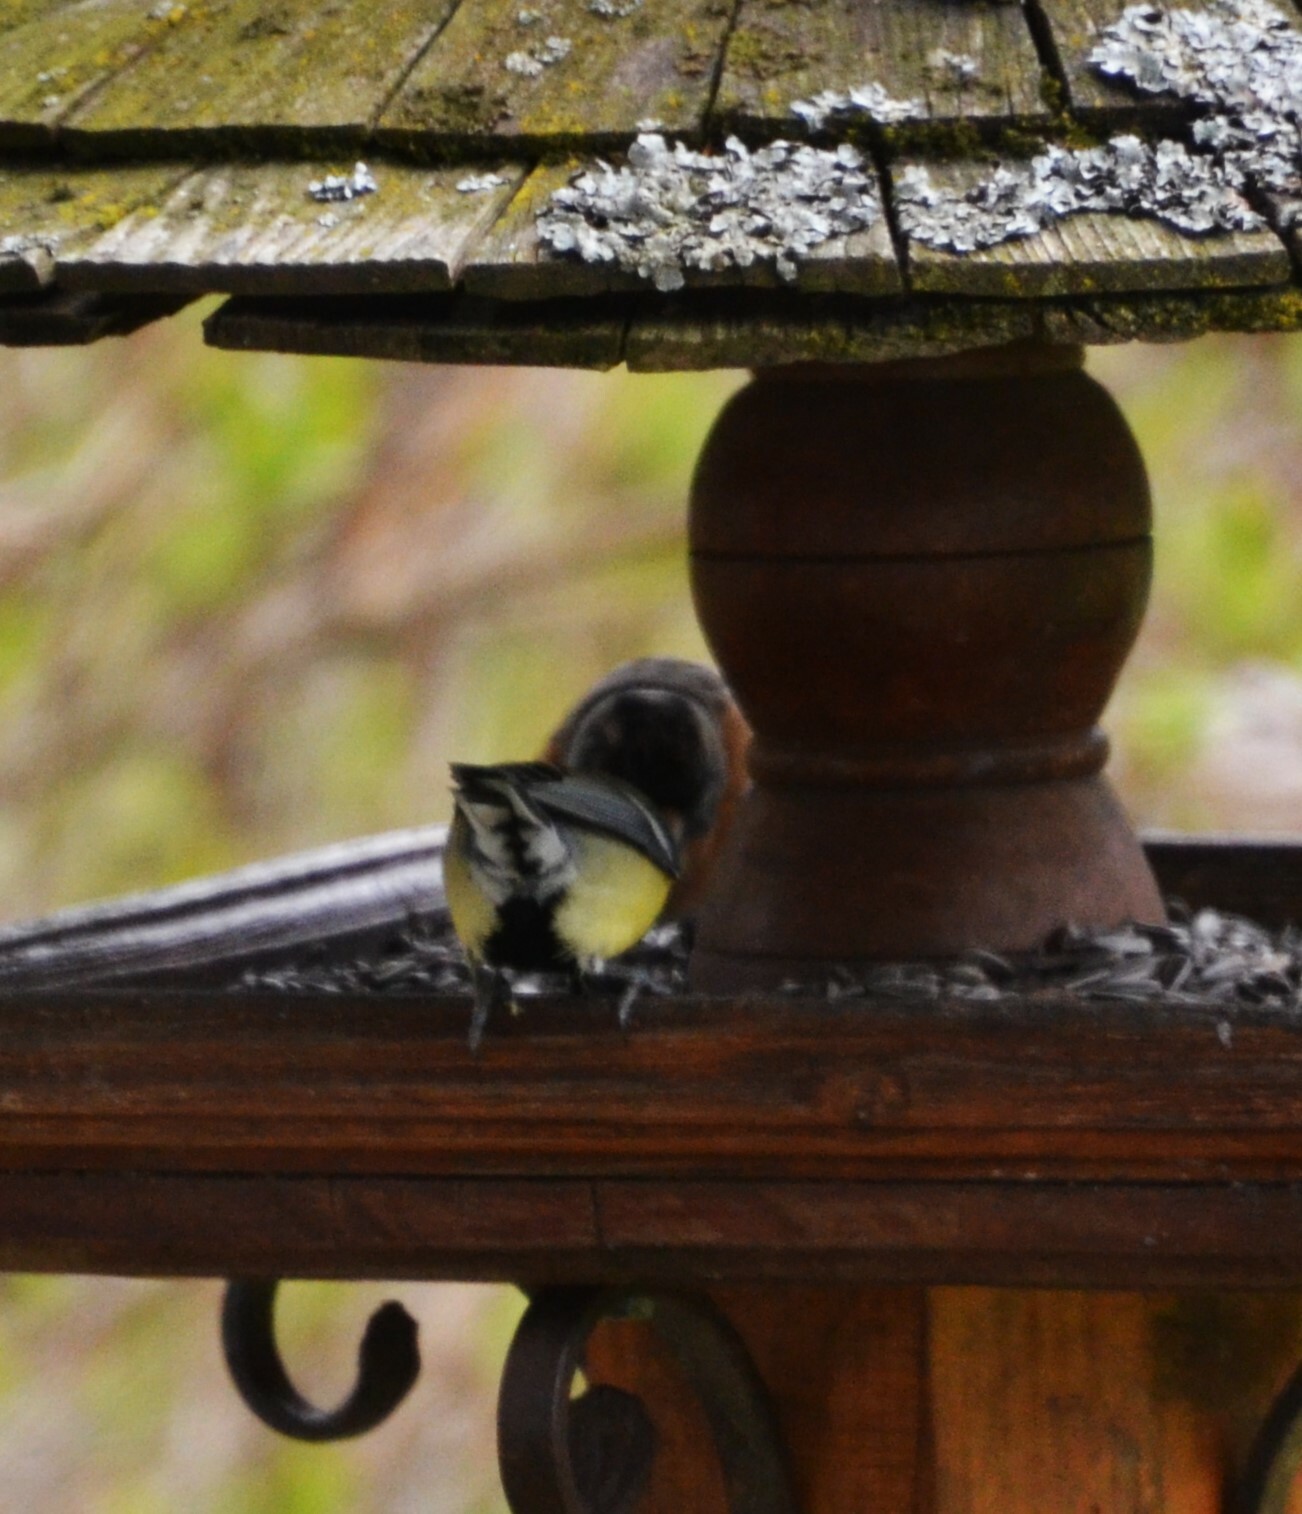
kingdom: Animalia
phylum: Chordata
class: Aves
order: Passeriformes
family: Paridae
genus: Parus
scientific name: Parus major
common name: Great tit
